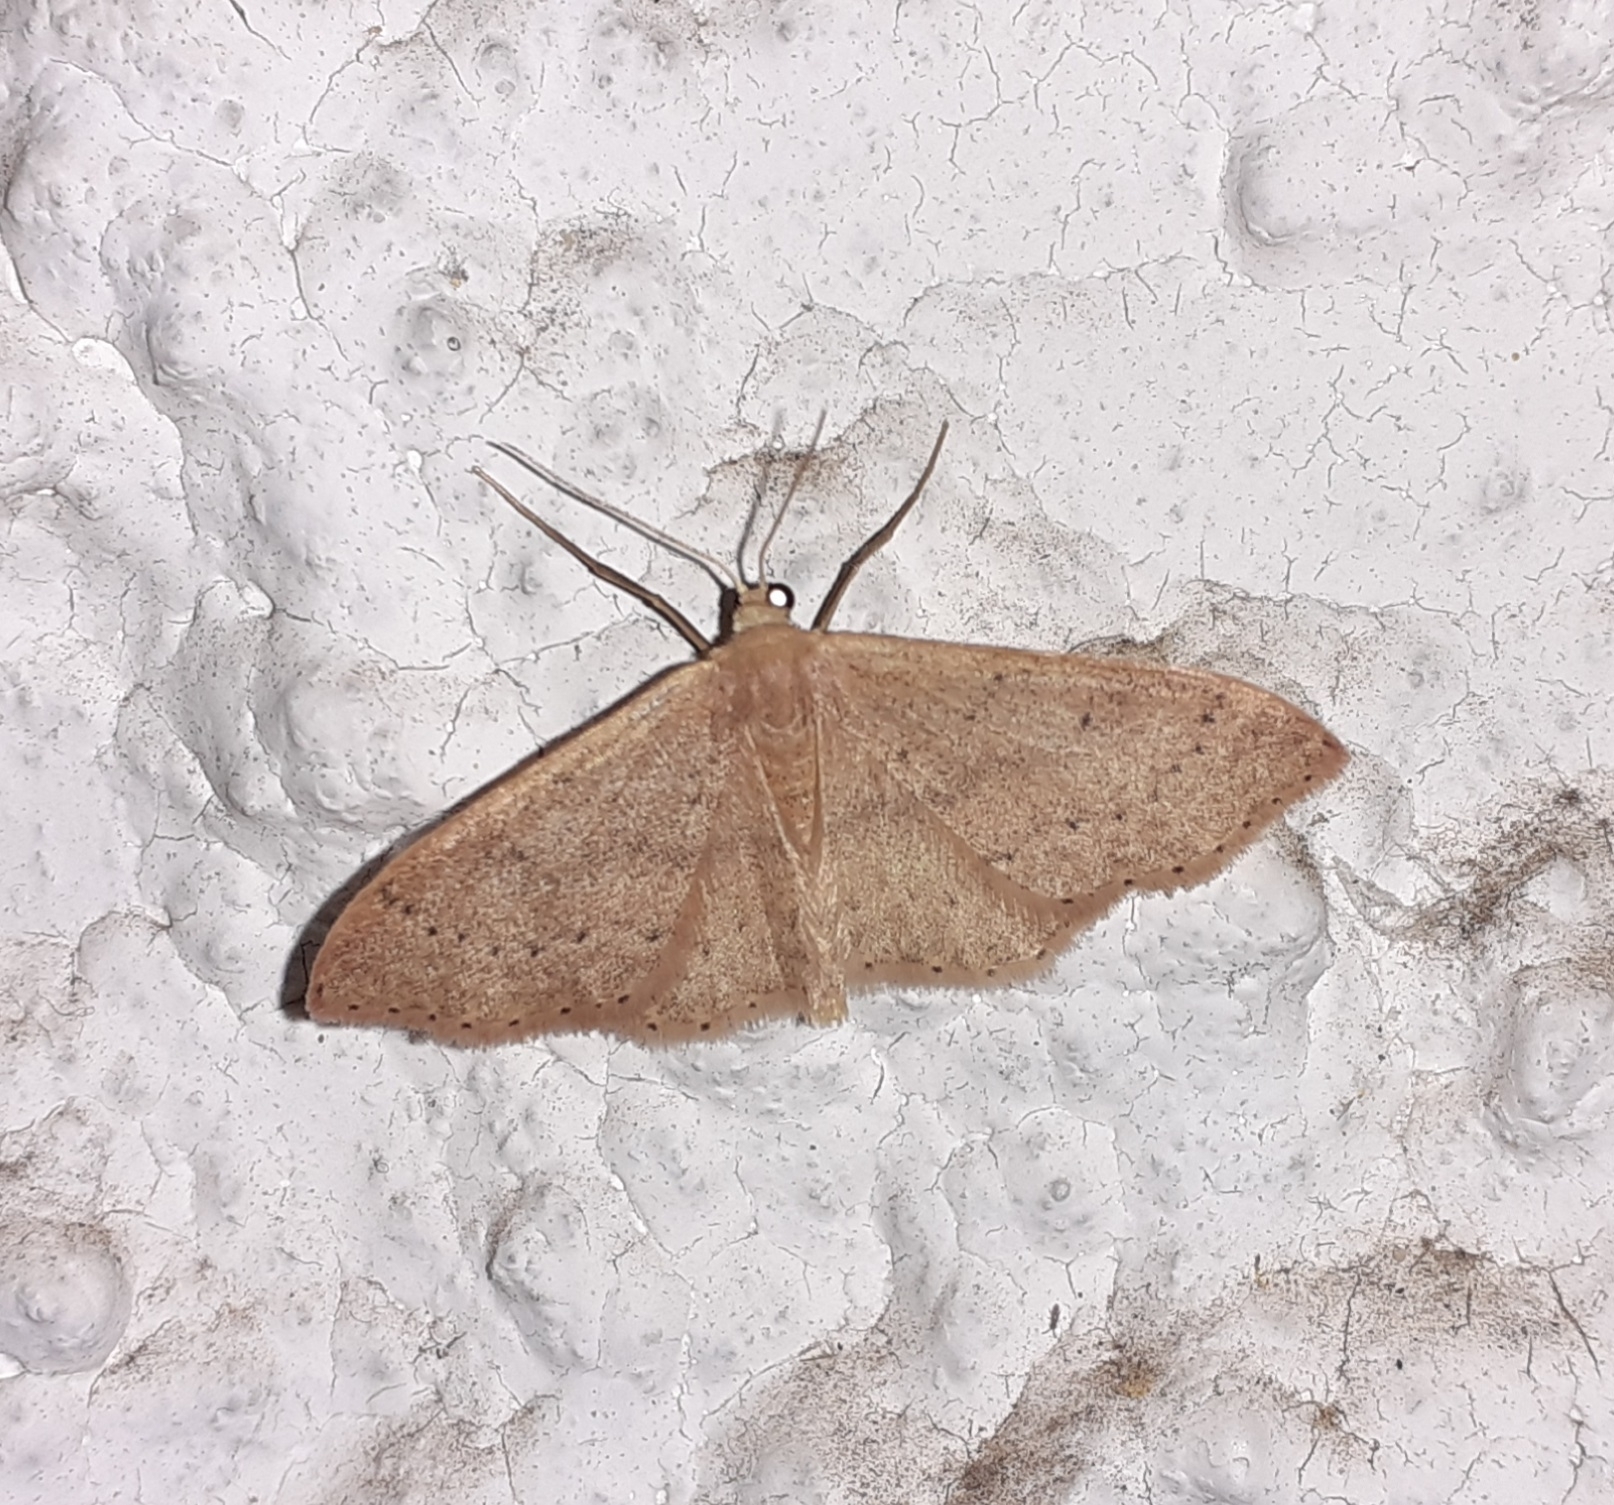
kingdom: Animalia
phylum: Arthropoda
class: Insecta
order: Lepidoptera
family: Geometridae
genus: Idaea
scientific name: Idaea eugeniata
